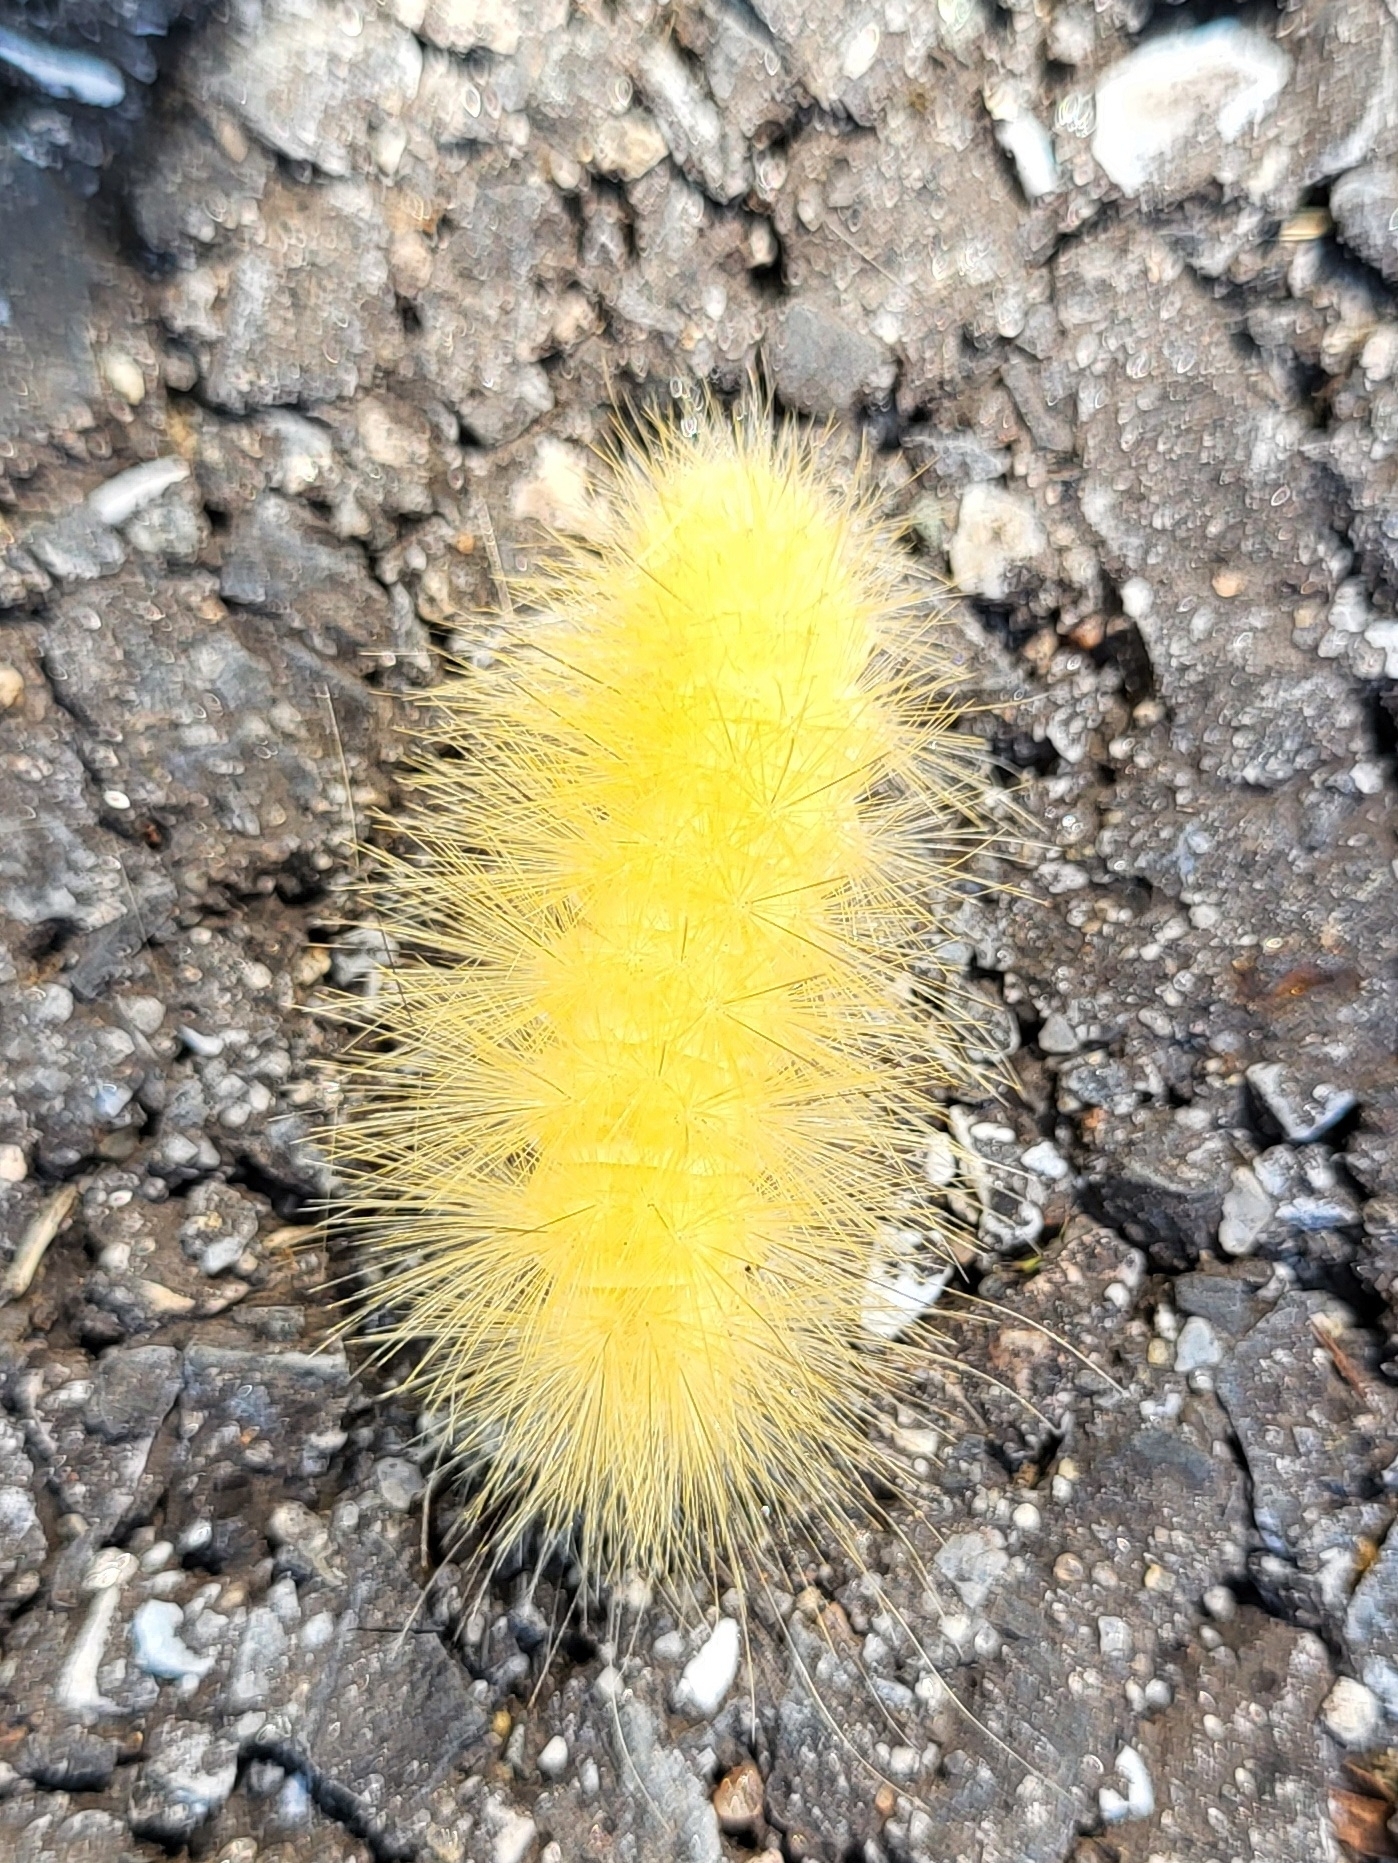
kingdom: Animalia
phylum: Arthropoda
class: Insecta
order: Lepidoptera
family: Erebidae
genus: Spilosoma
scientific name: Spilosoma virginica
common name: Virginia tiger moth
